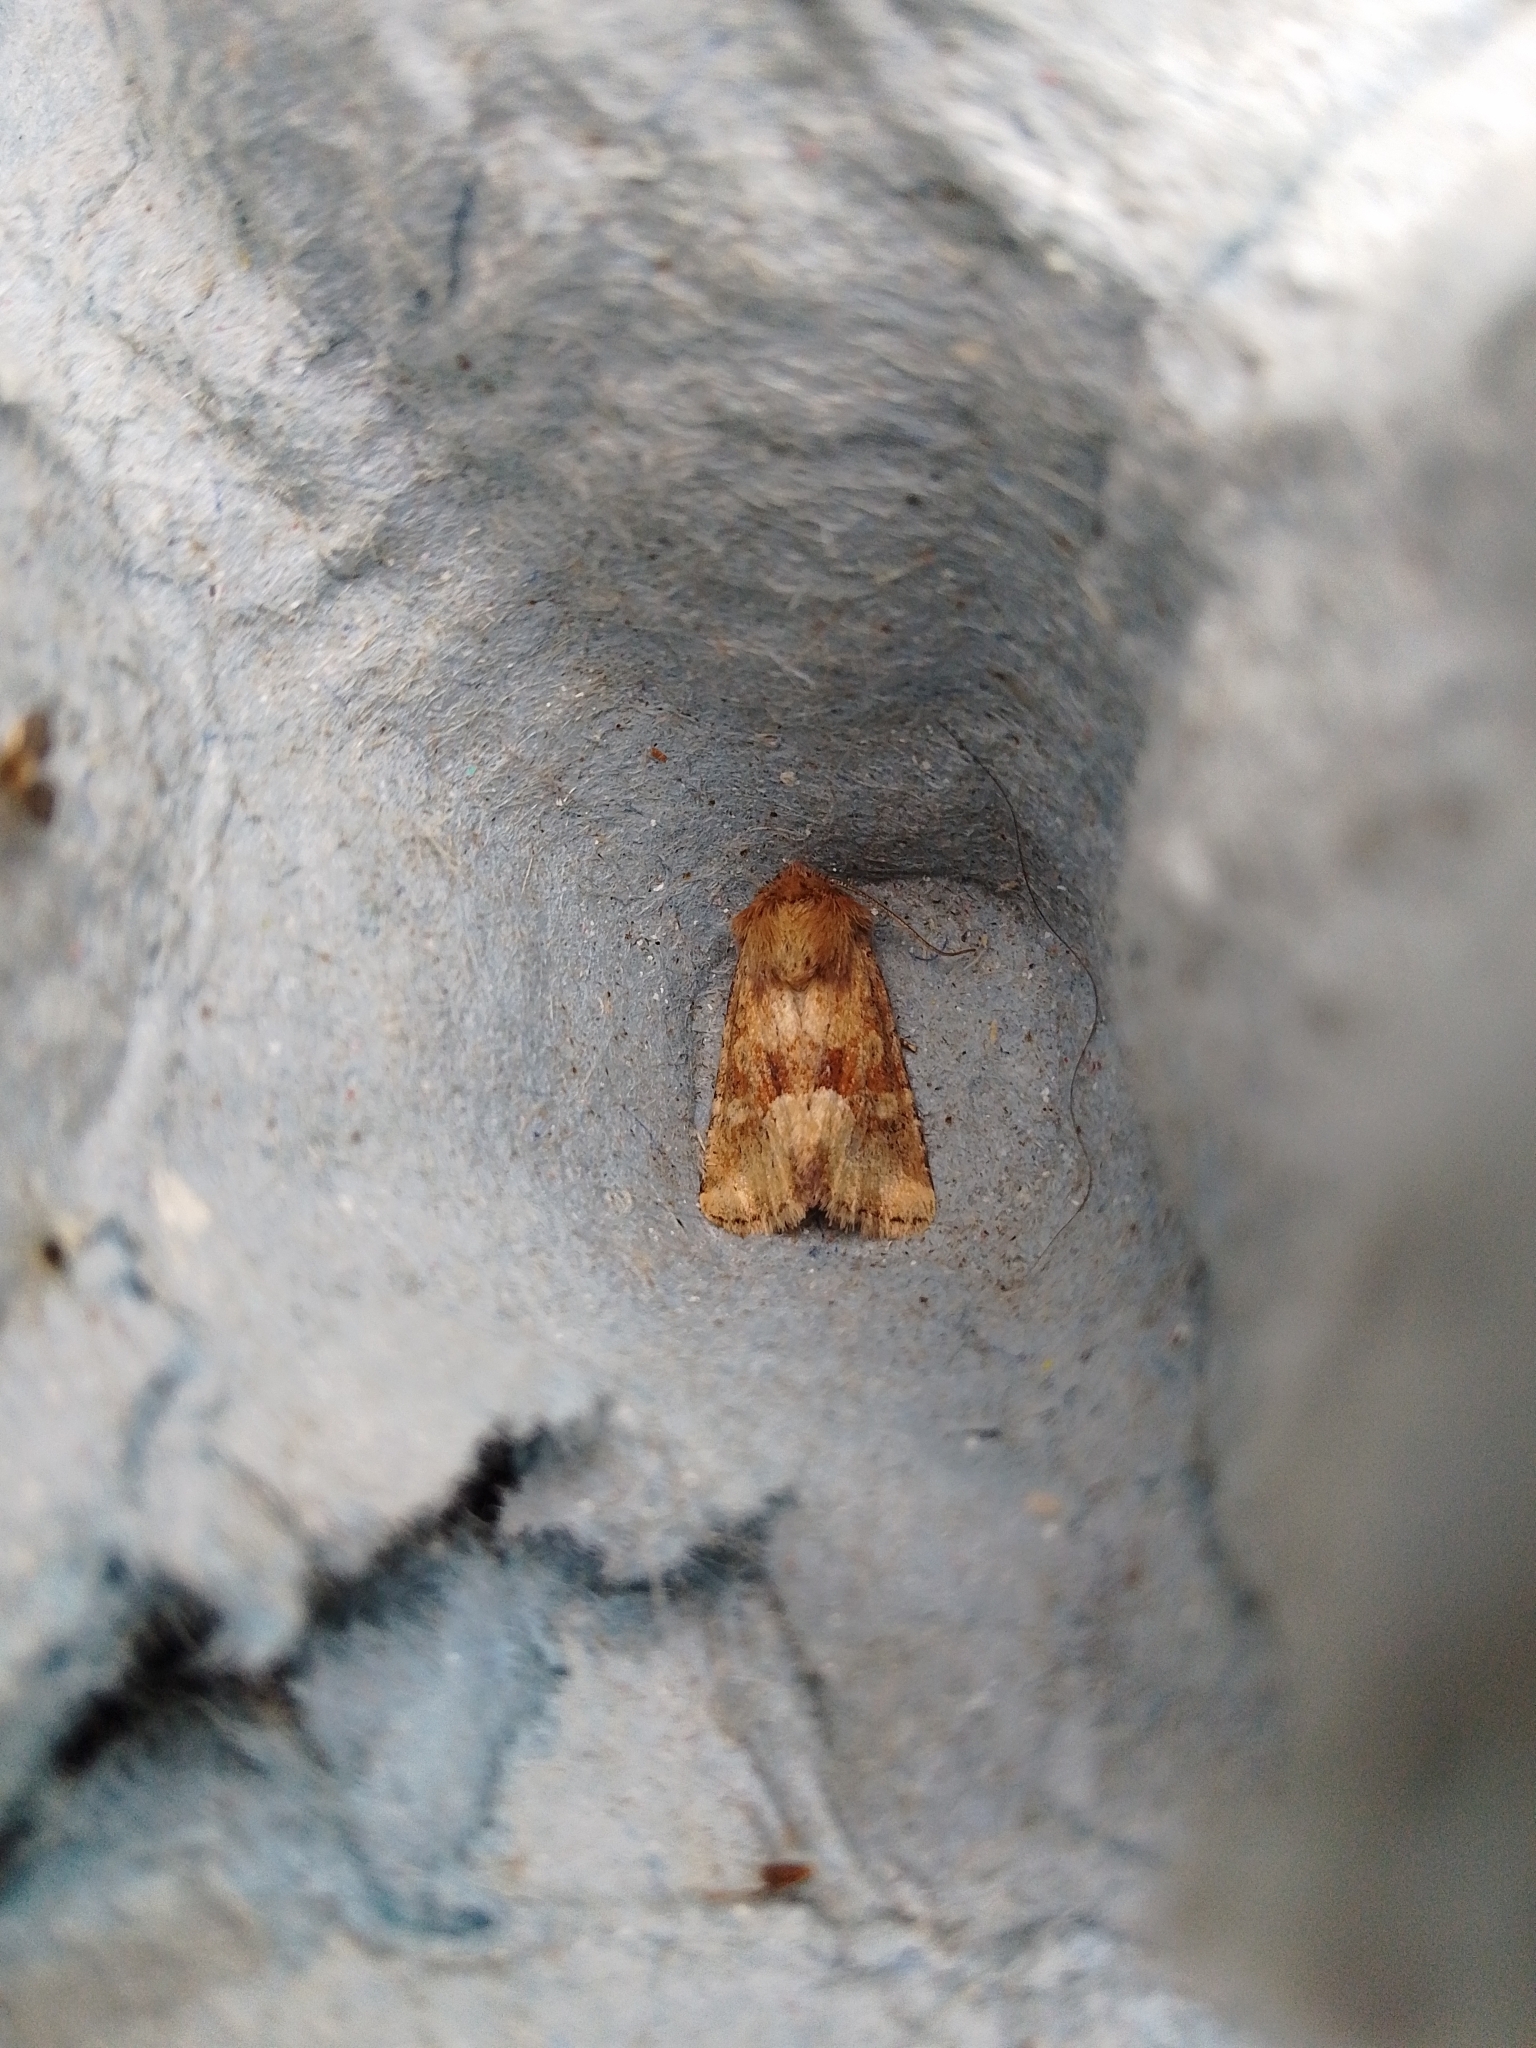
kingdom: Animalia
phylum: Arthropoda
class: Insecta
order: Lepidoptera
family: Noctuidae
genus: Oligia
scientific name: Oligia fasciuncula
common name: Middle-barred minor
